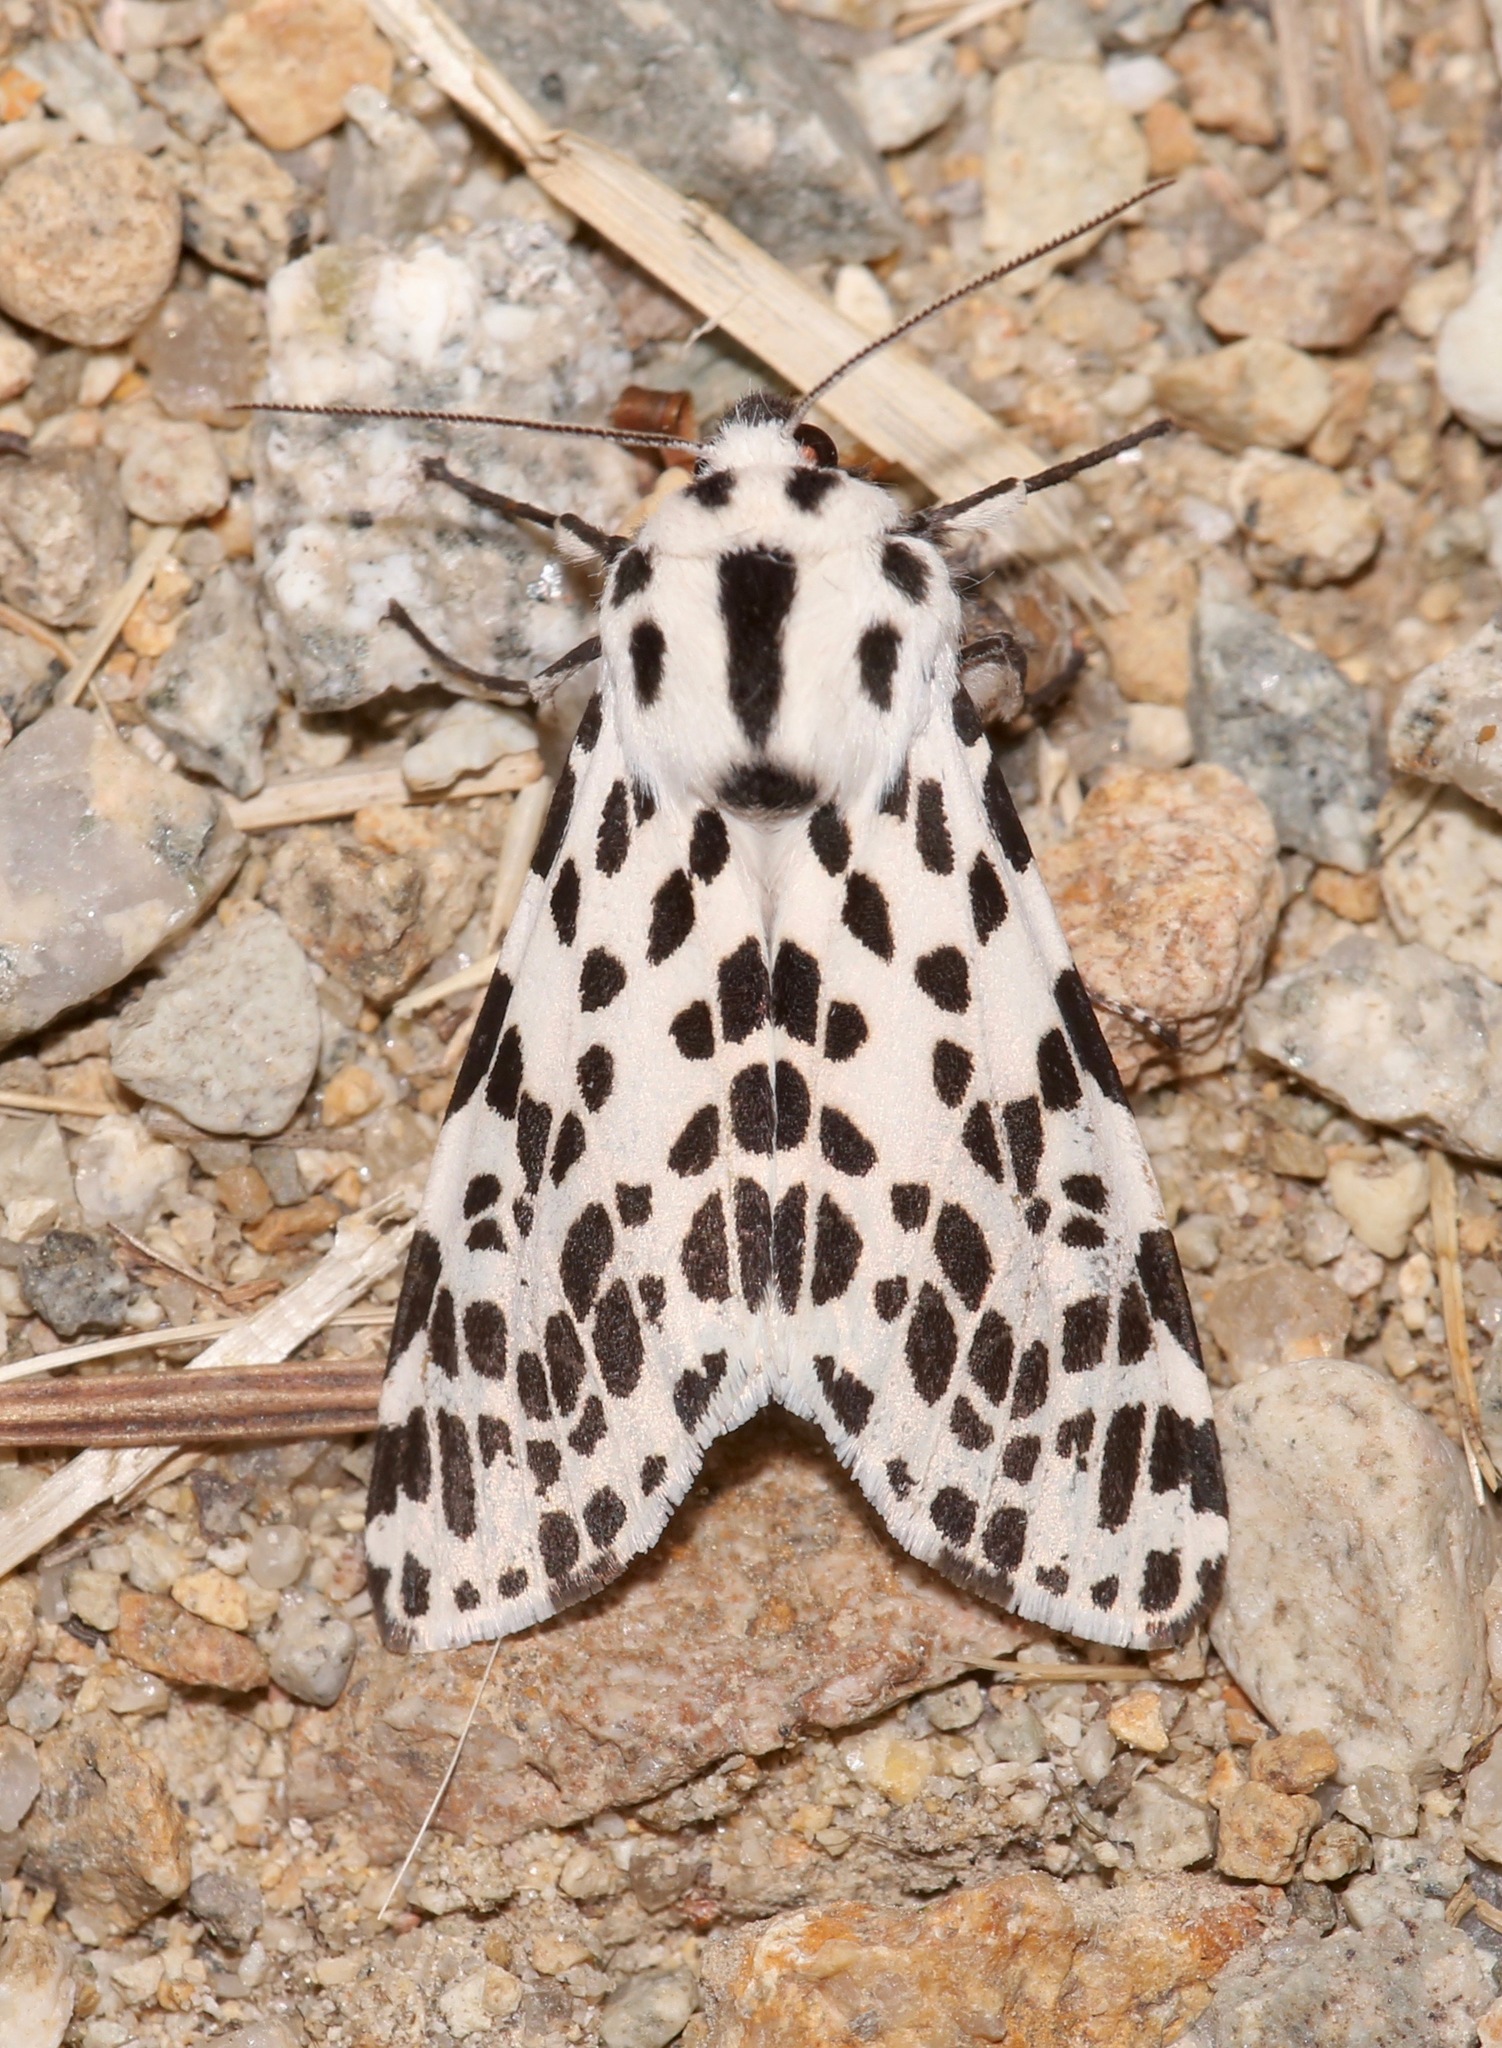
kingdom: Animalia
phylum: Arthropoda
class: Insecta
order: Lepidoptera
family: Erebidae
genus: Hypercompe
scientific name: Hypercompe permaculata
